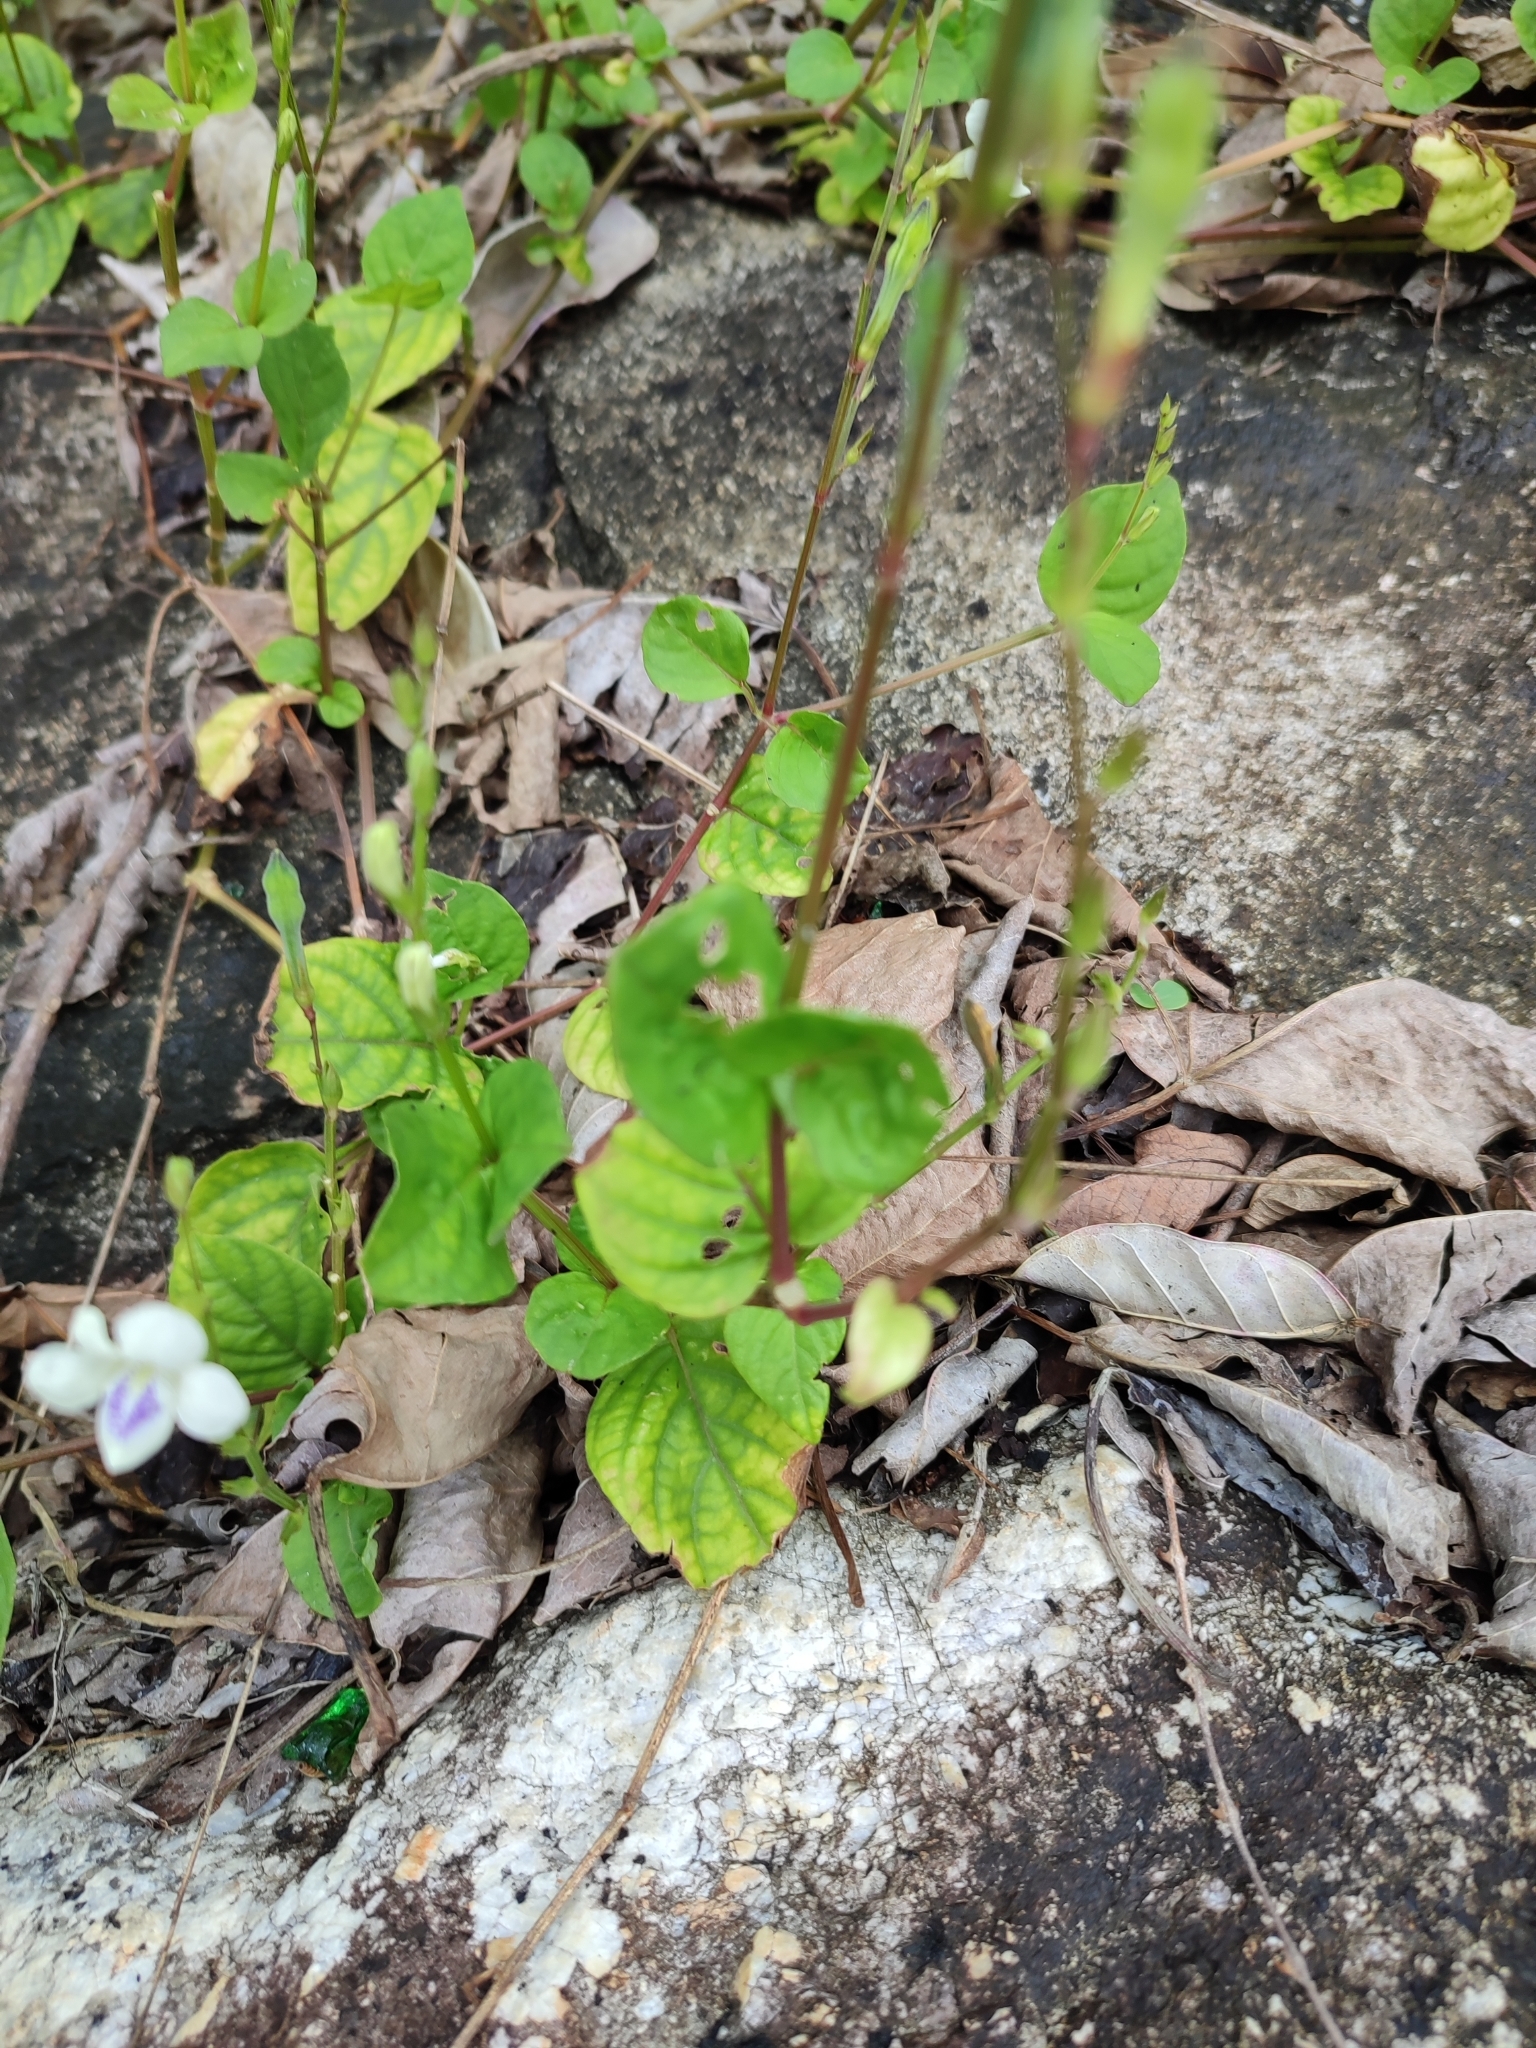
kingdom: Plantae
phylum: Tracheophyta
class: Magnoliopsida
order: Lamiales
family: Acanthaceae
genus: Asystasia
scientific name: Asystasia intrusa
